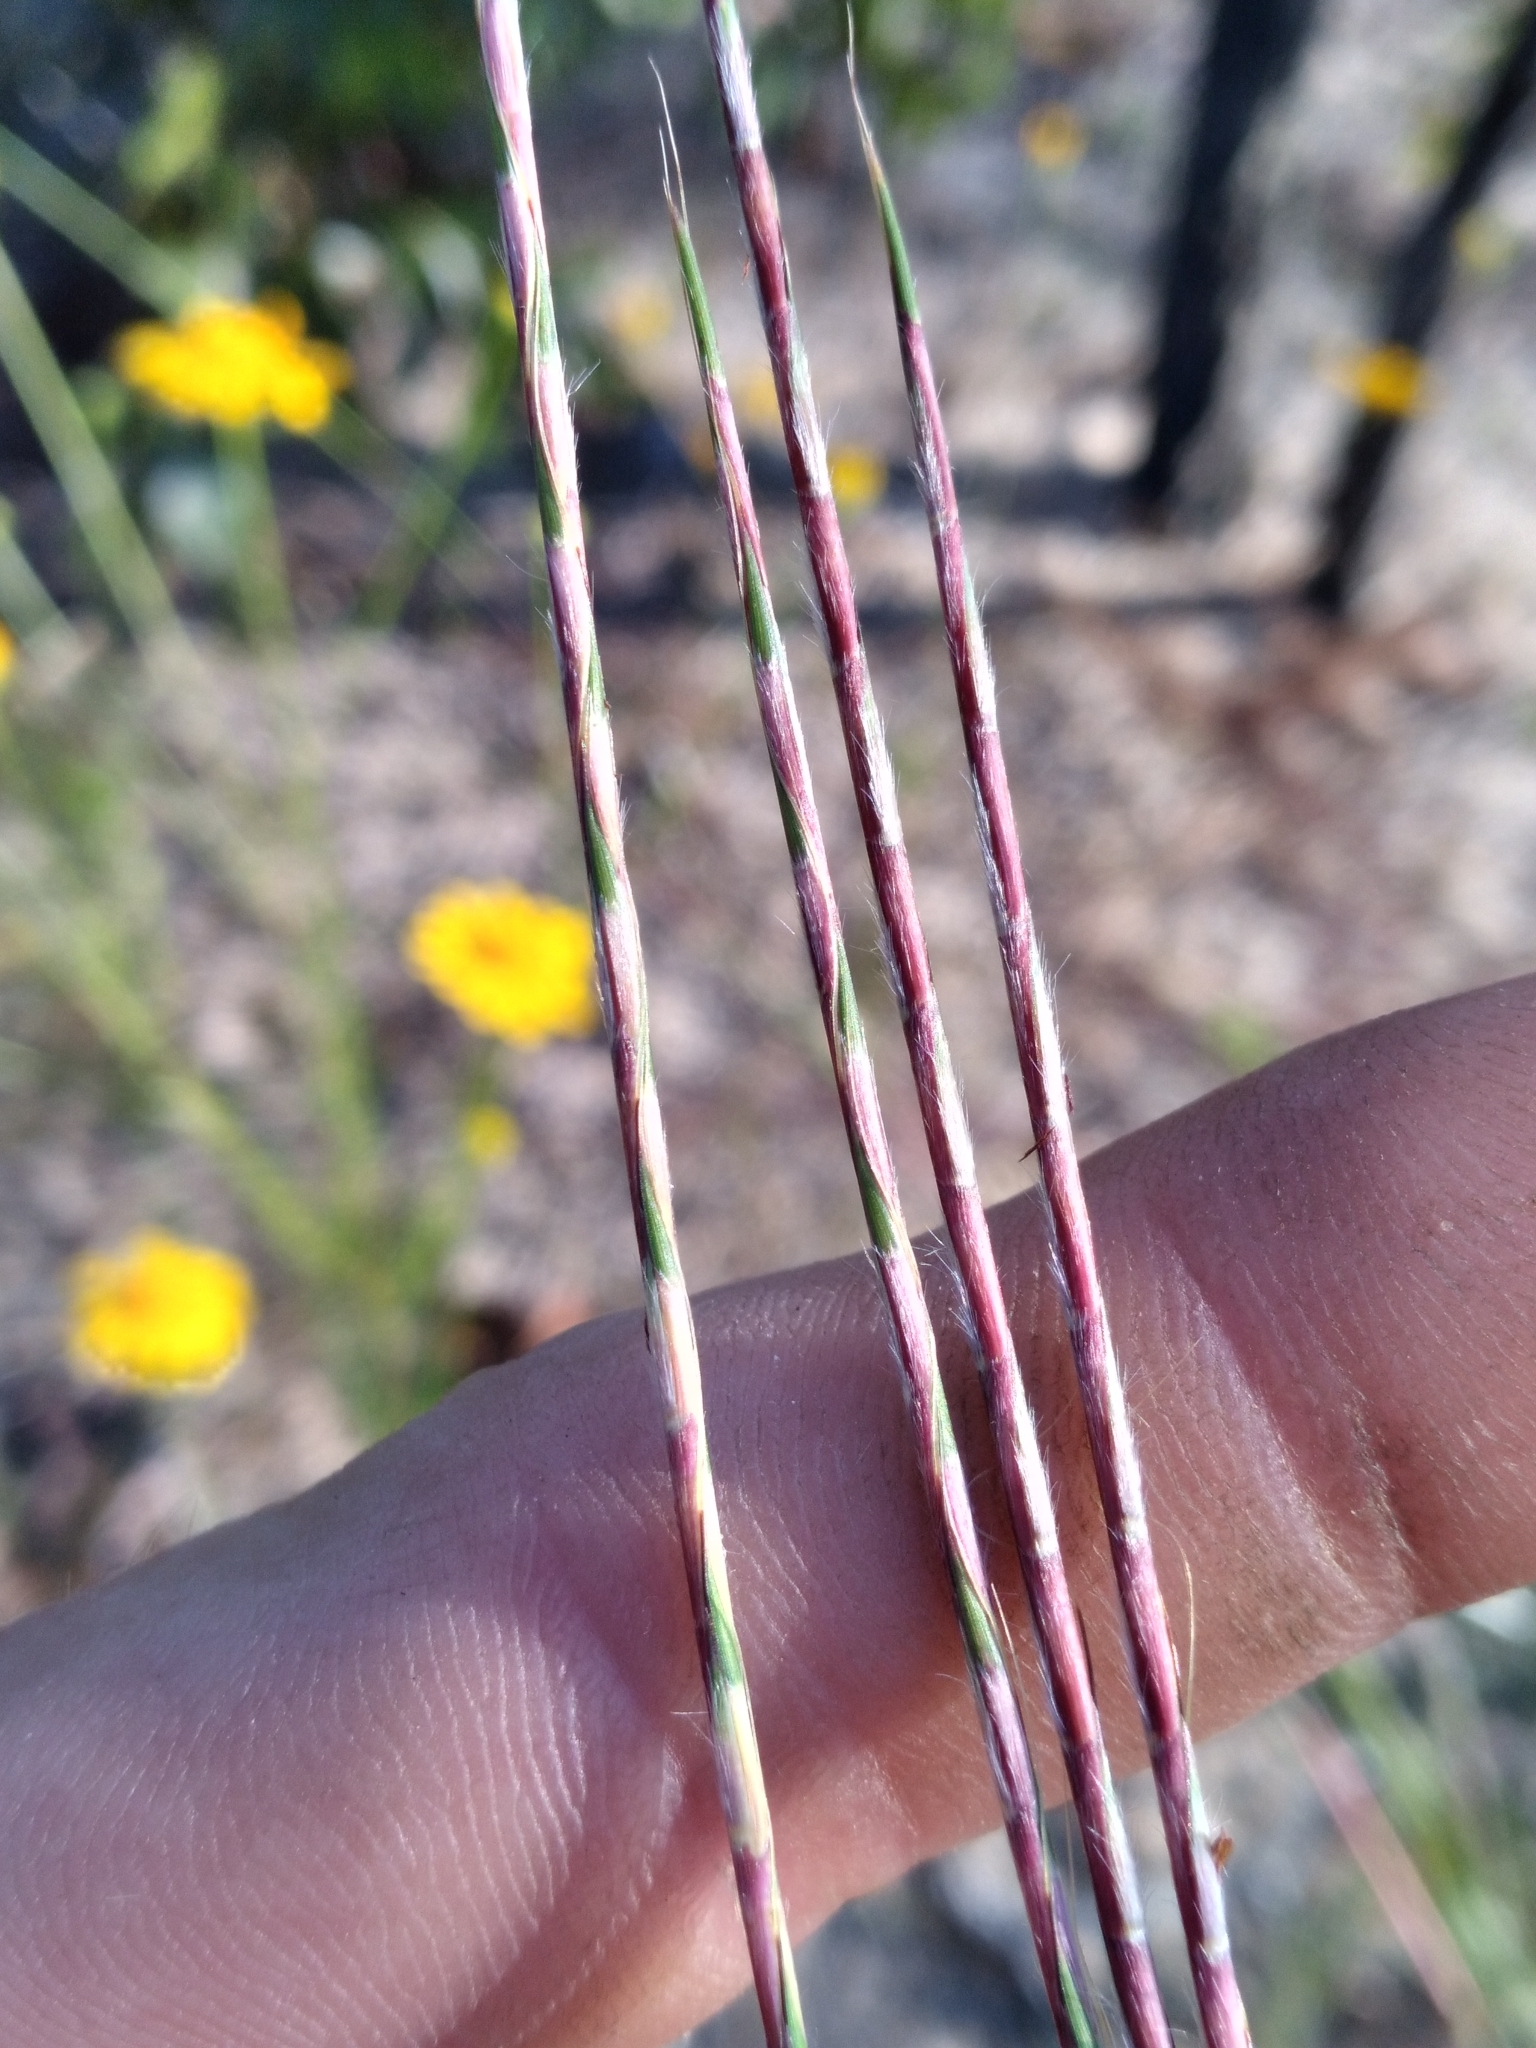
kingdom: Plantae
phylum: Tracheophyta
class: Liliopsida
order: Poales
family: Poaceae
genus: Schizachyrium
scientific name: Schizachyrium sanguineum
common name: Crimson bluestem
